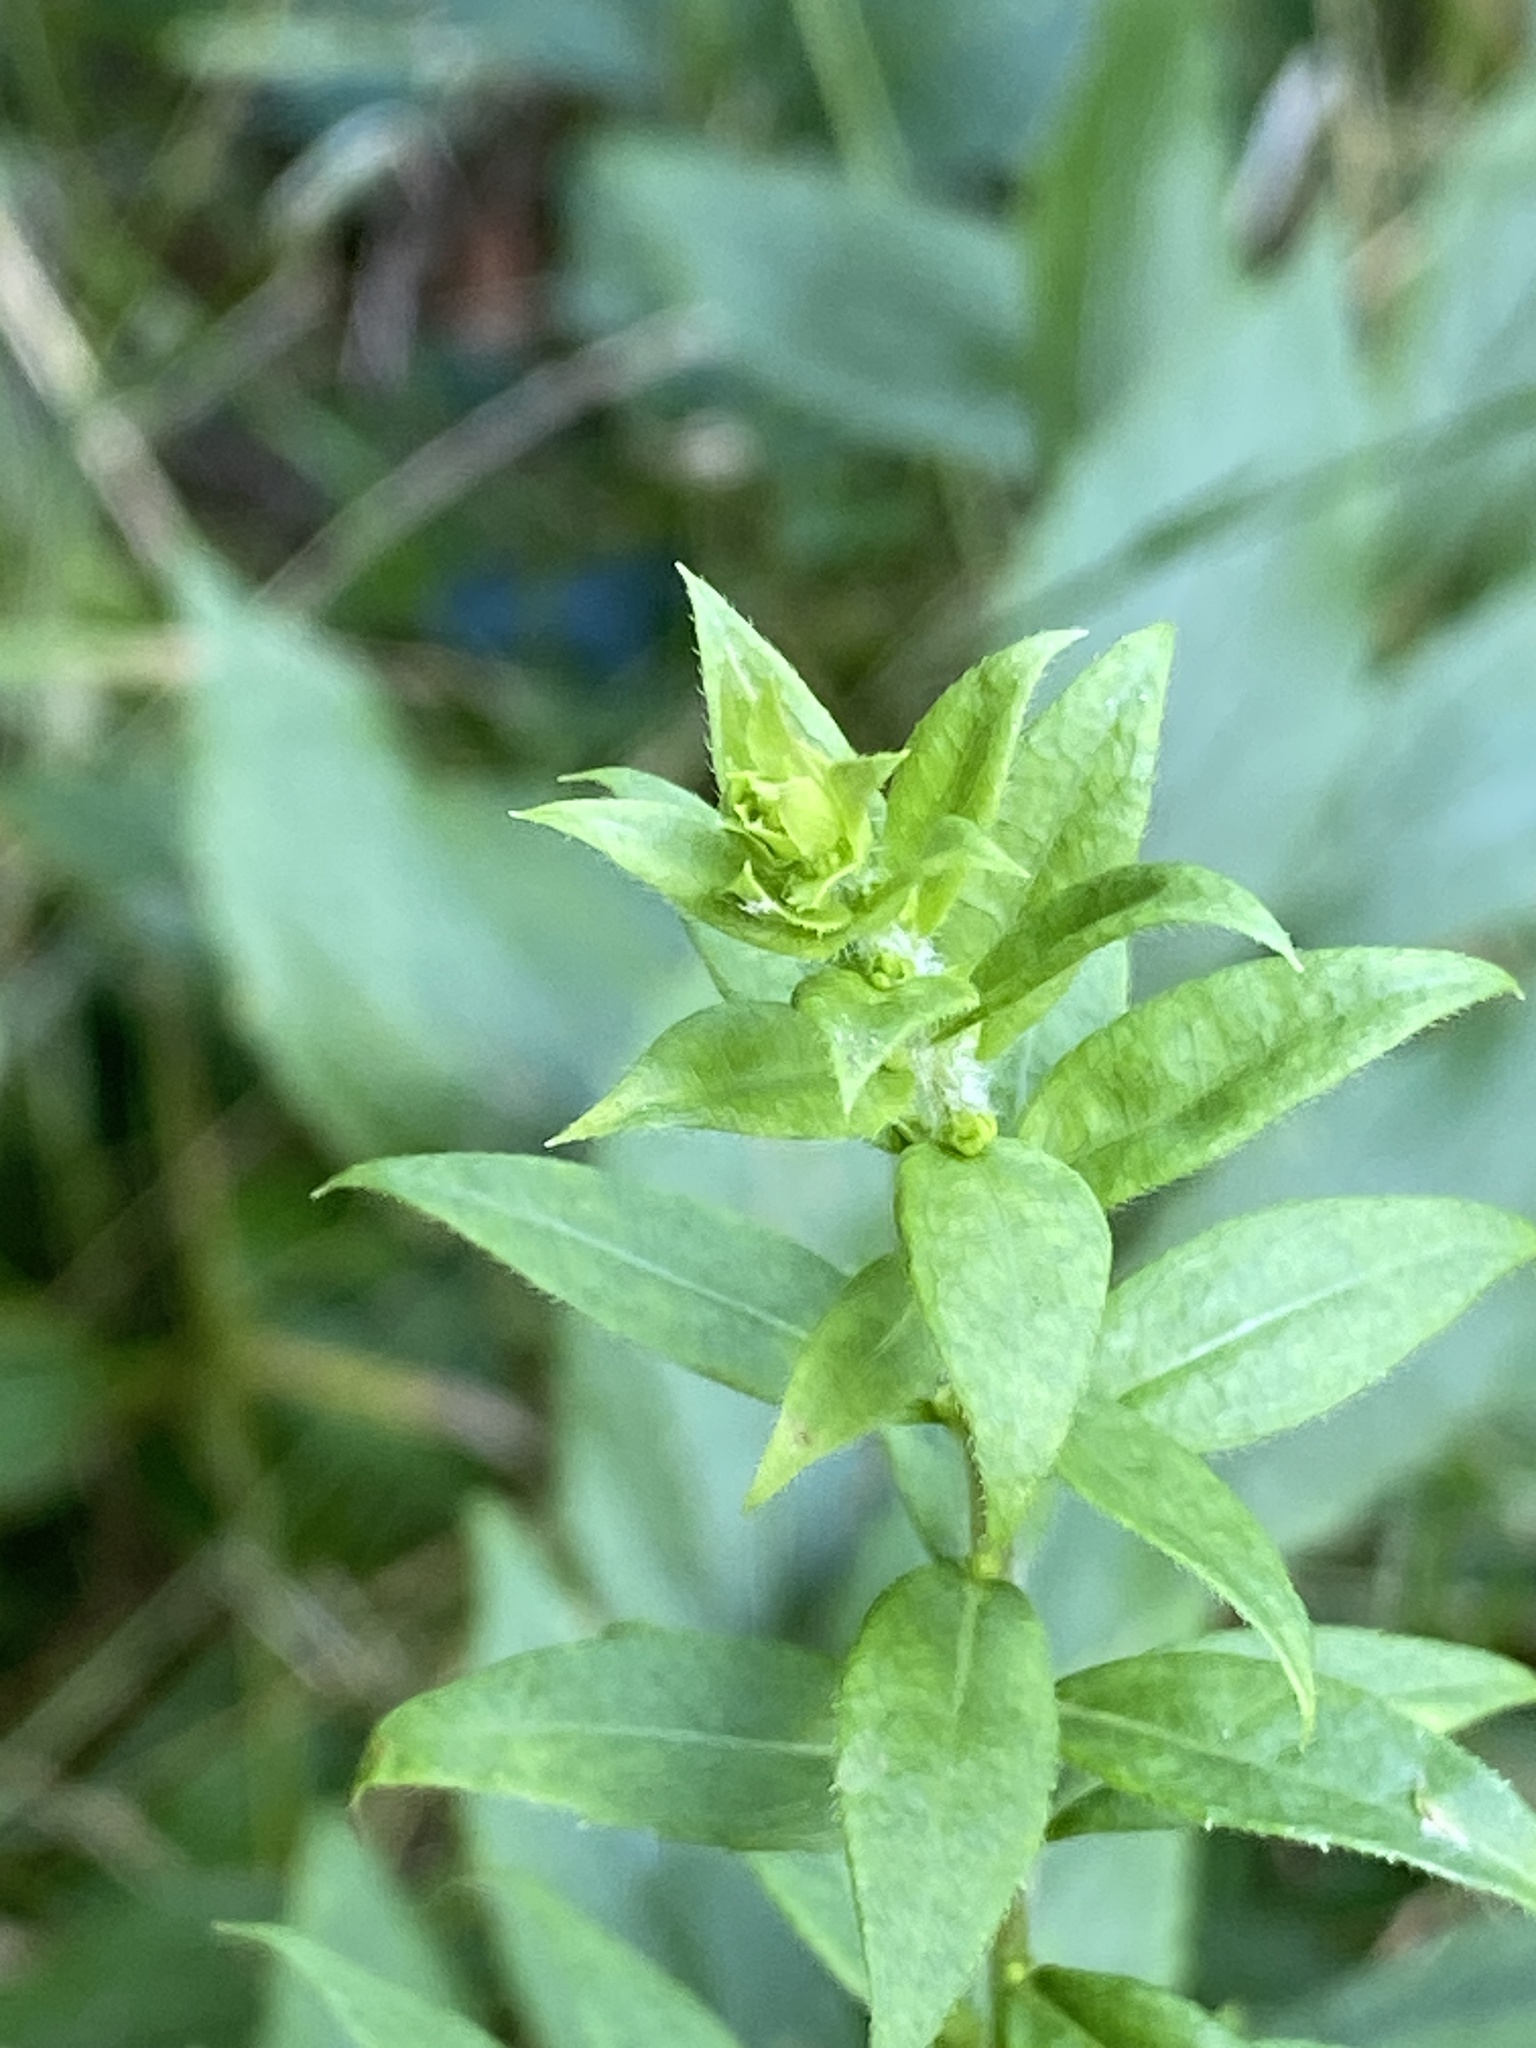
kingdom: Plantae
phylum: Tracheophyta
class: Magnoliopsida
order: Asterales
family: Asteraceae
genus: Solidago
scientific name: Solidago rugosa
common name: Rough-stemmed goldenrod
